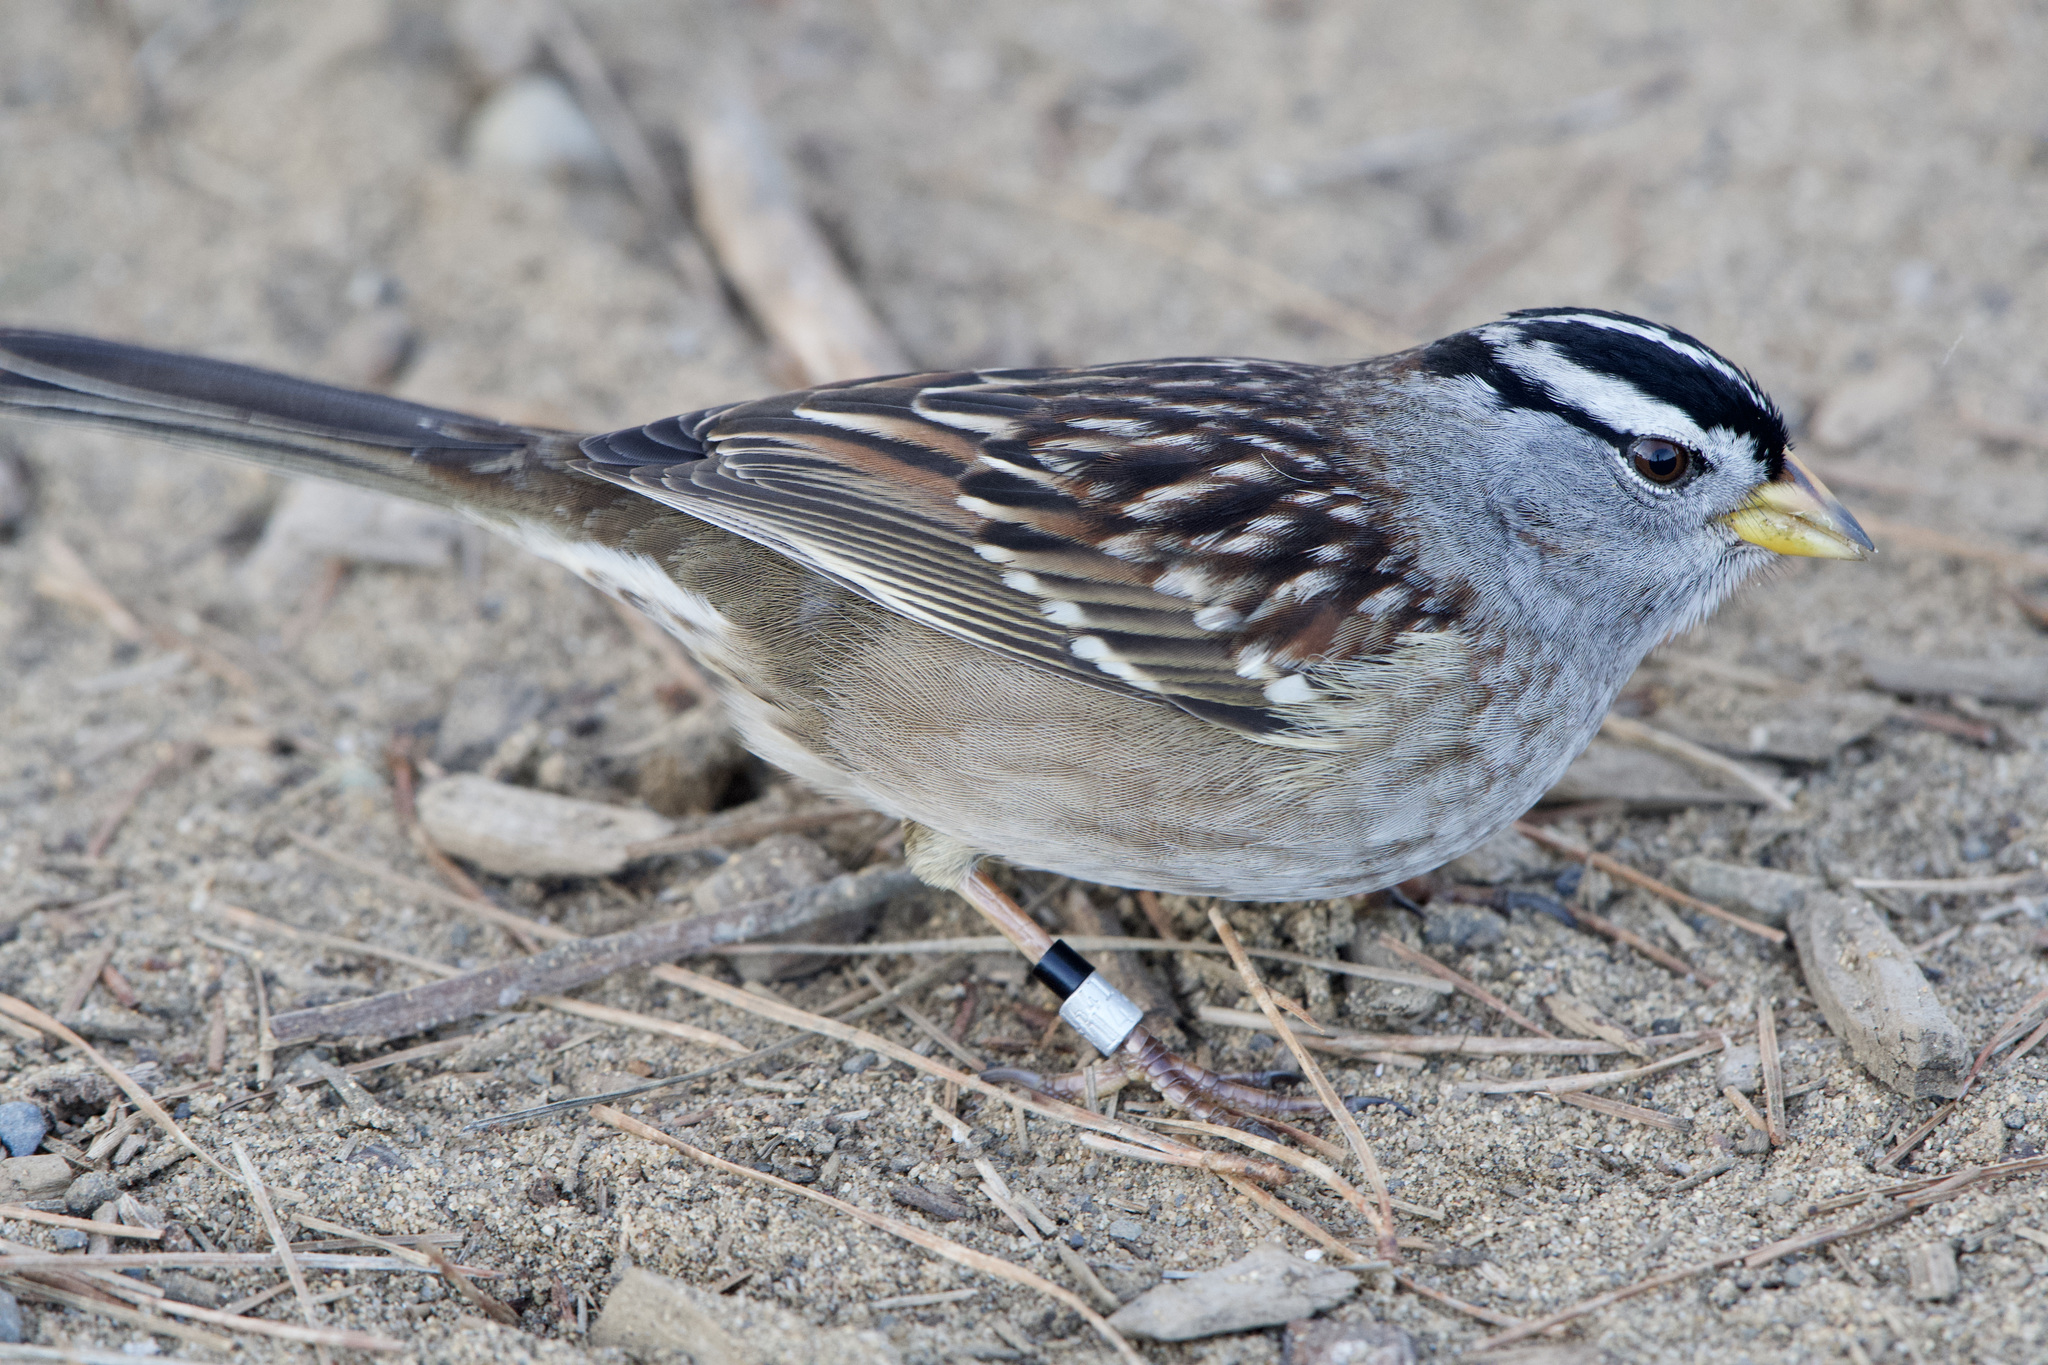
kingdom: Animalia
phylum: Chordata
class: Aves
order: Passeriformes
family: Passerellidae
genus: Zonotrichia
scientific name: Zonotrichia leucophrys
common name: White-crowned sparrow
